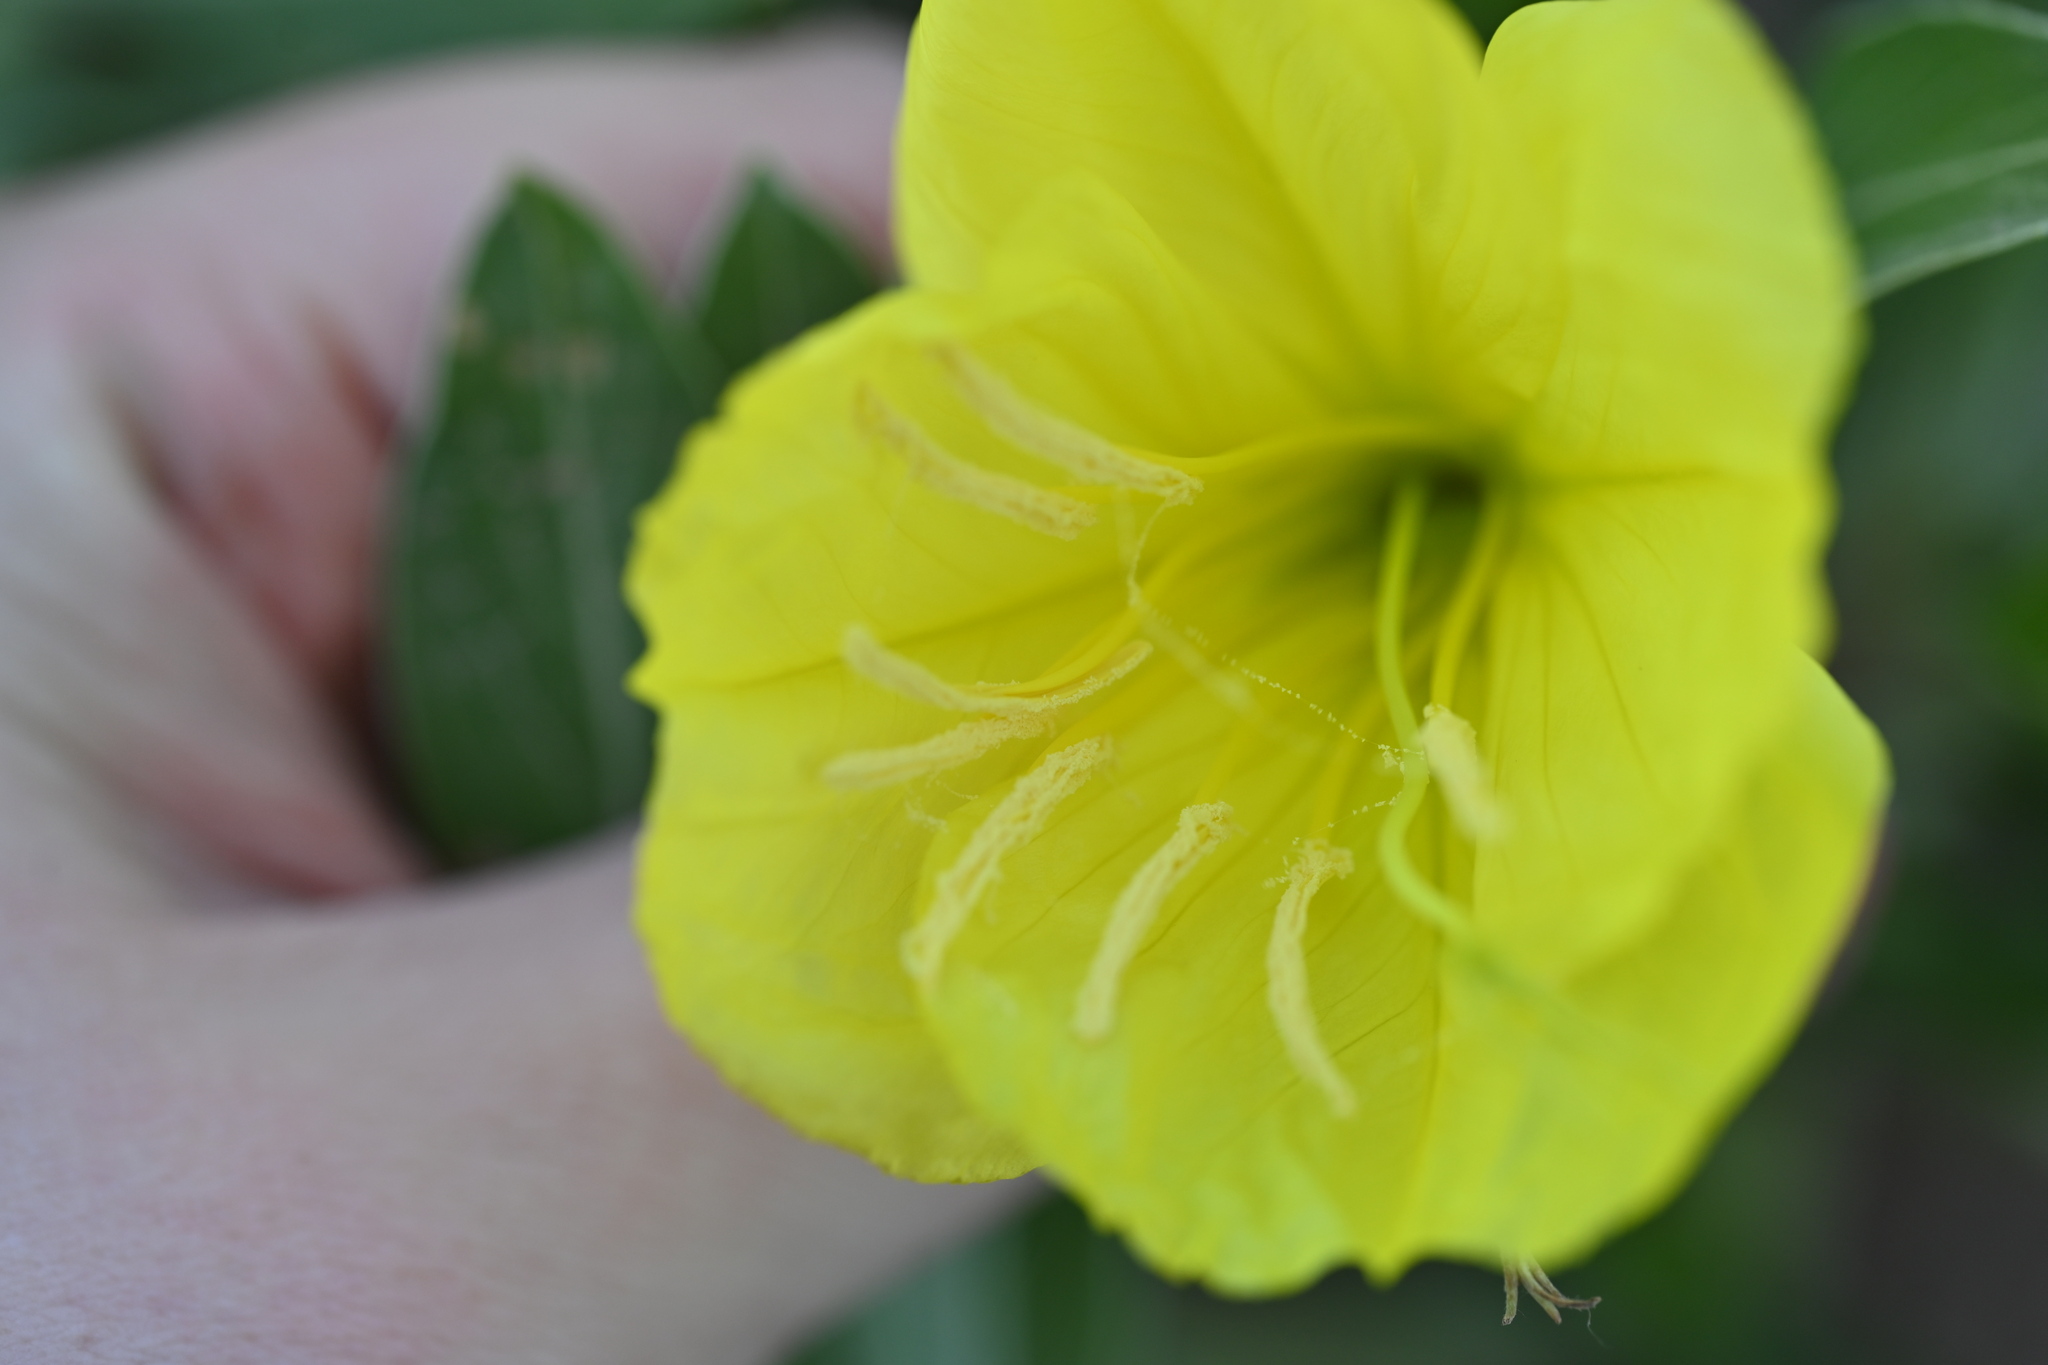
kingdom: Plantae
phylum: Tracheophyta
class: Magnoliopsida
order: Myrtales
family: Onagraceae
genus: Oenothera
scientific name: Oenothera macrocarpa
